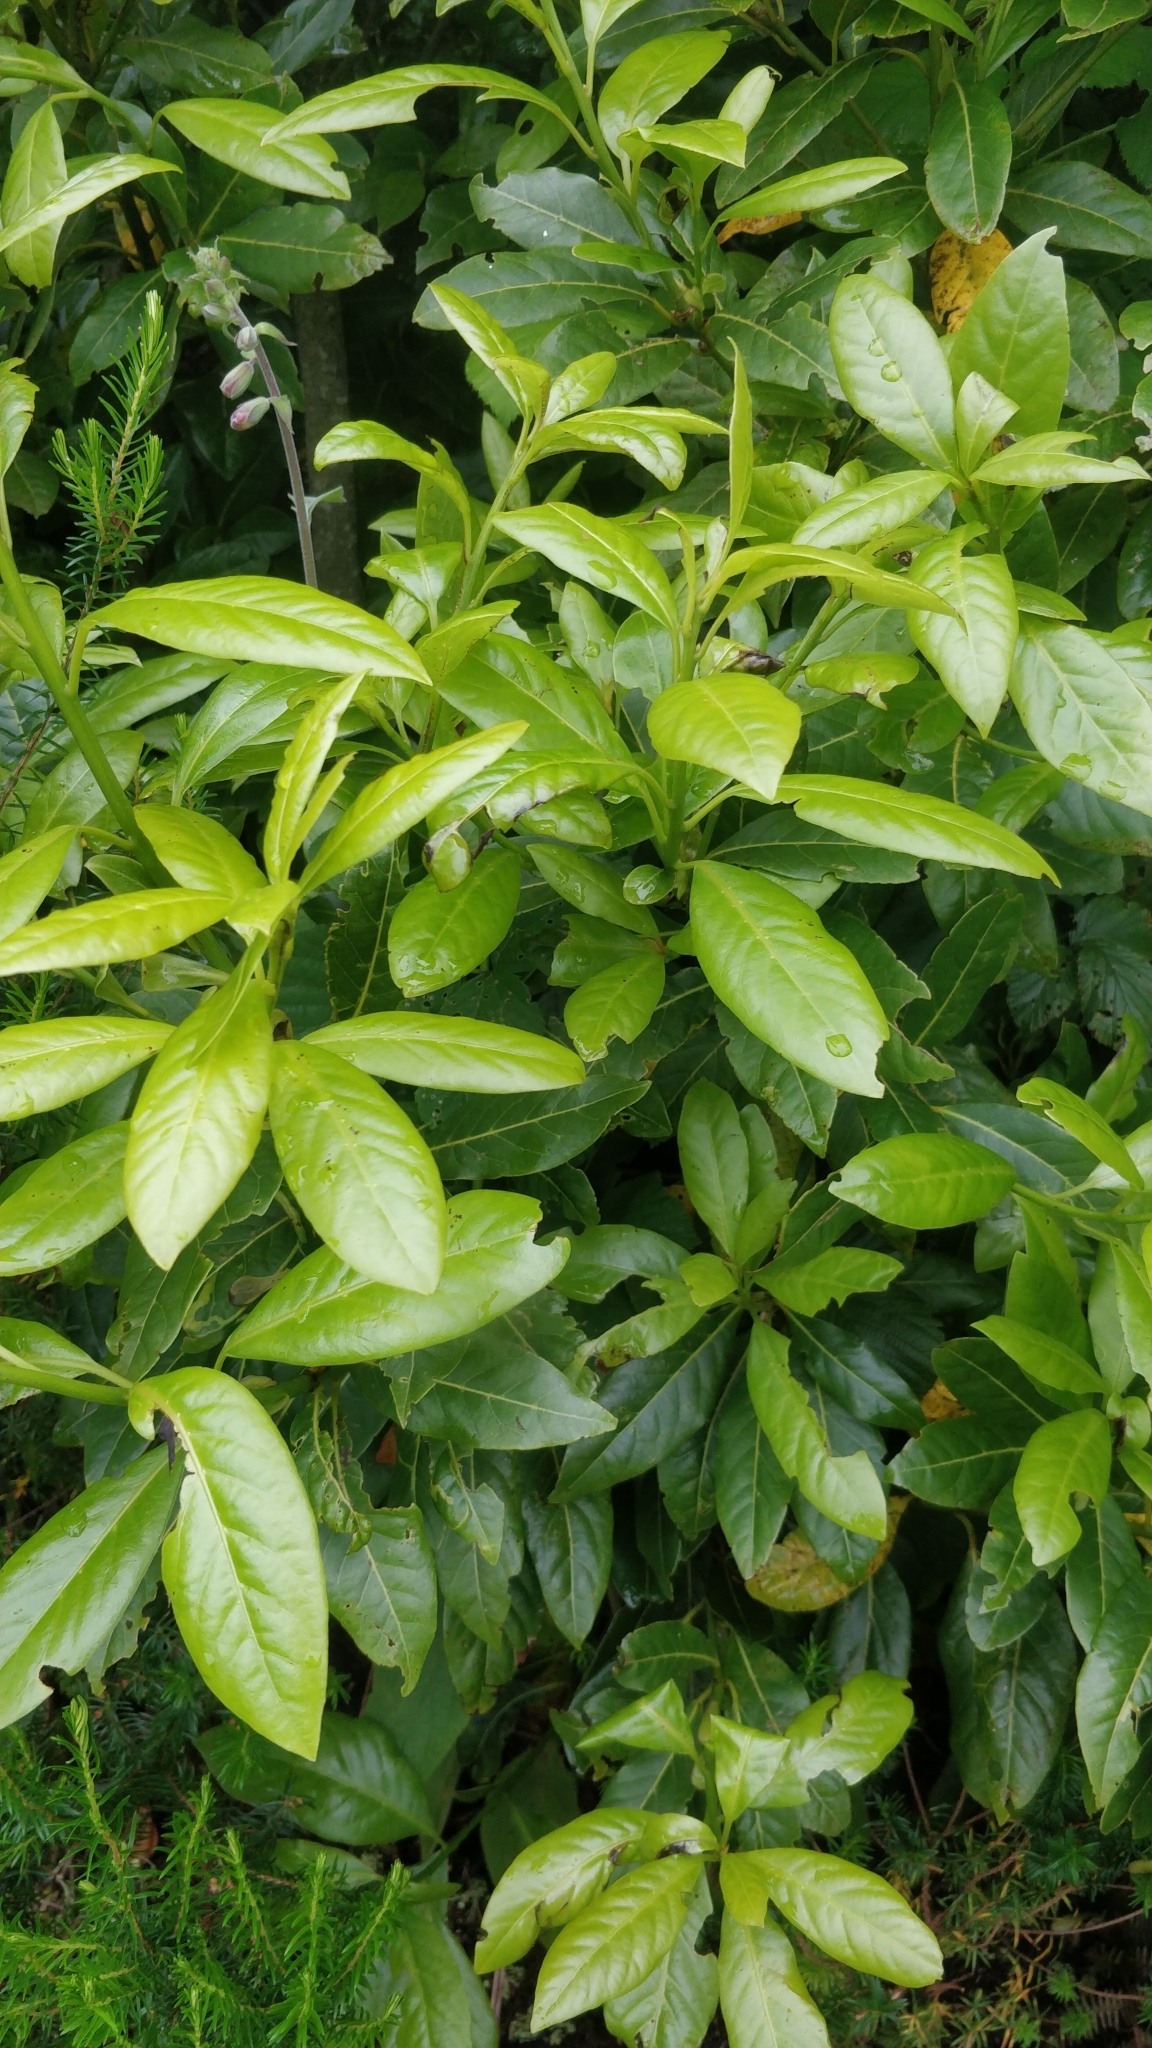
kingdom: Plantae
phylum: Tracheophyta
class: Magnoliopsida
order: Laurales
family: Lauraceae
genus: Laurus
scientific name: Laurus novocanariensis
